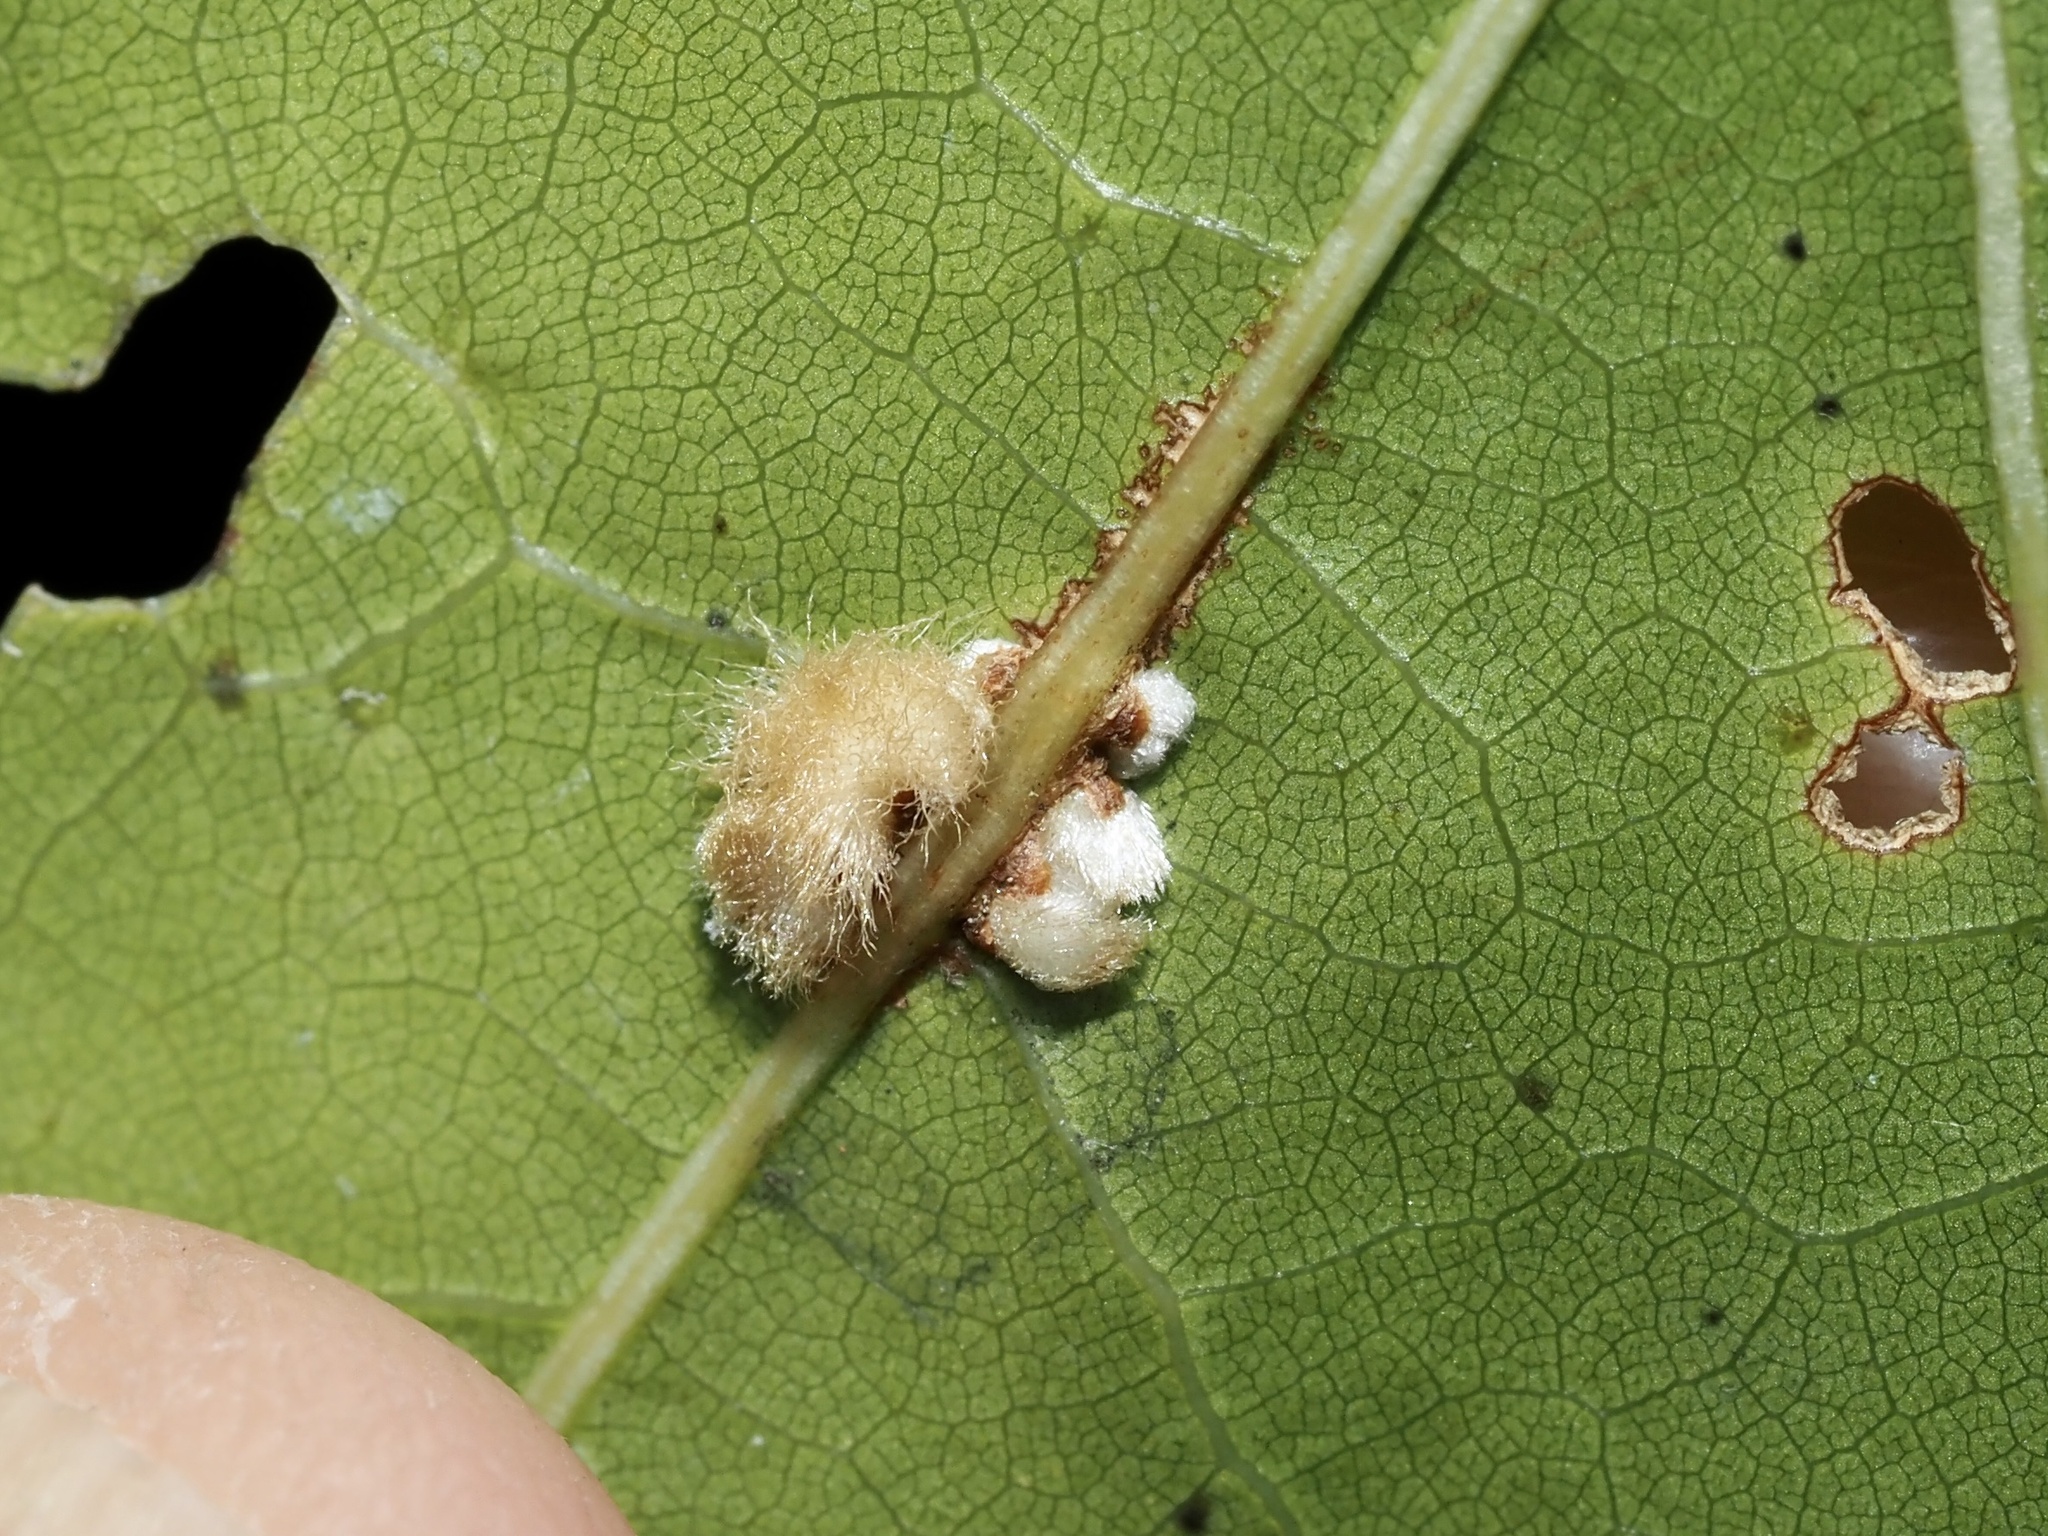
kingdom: Animalia
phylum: Arthropoda
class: Insecta
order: Hymenoptera
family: Cynipidae
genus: Callirhytis
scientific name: Callirhytis
